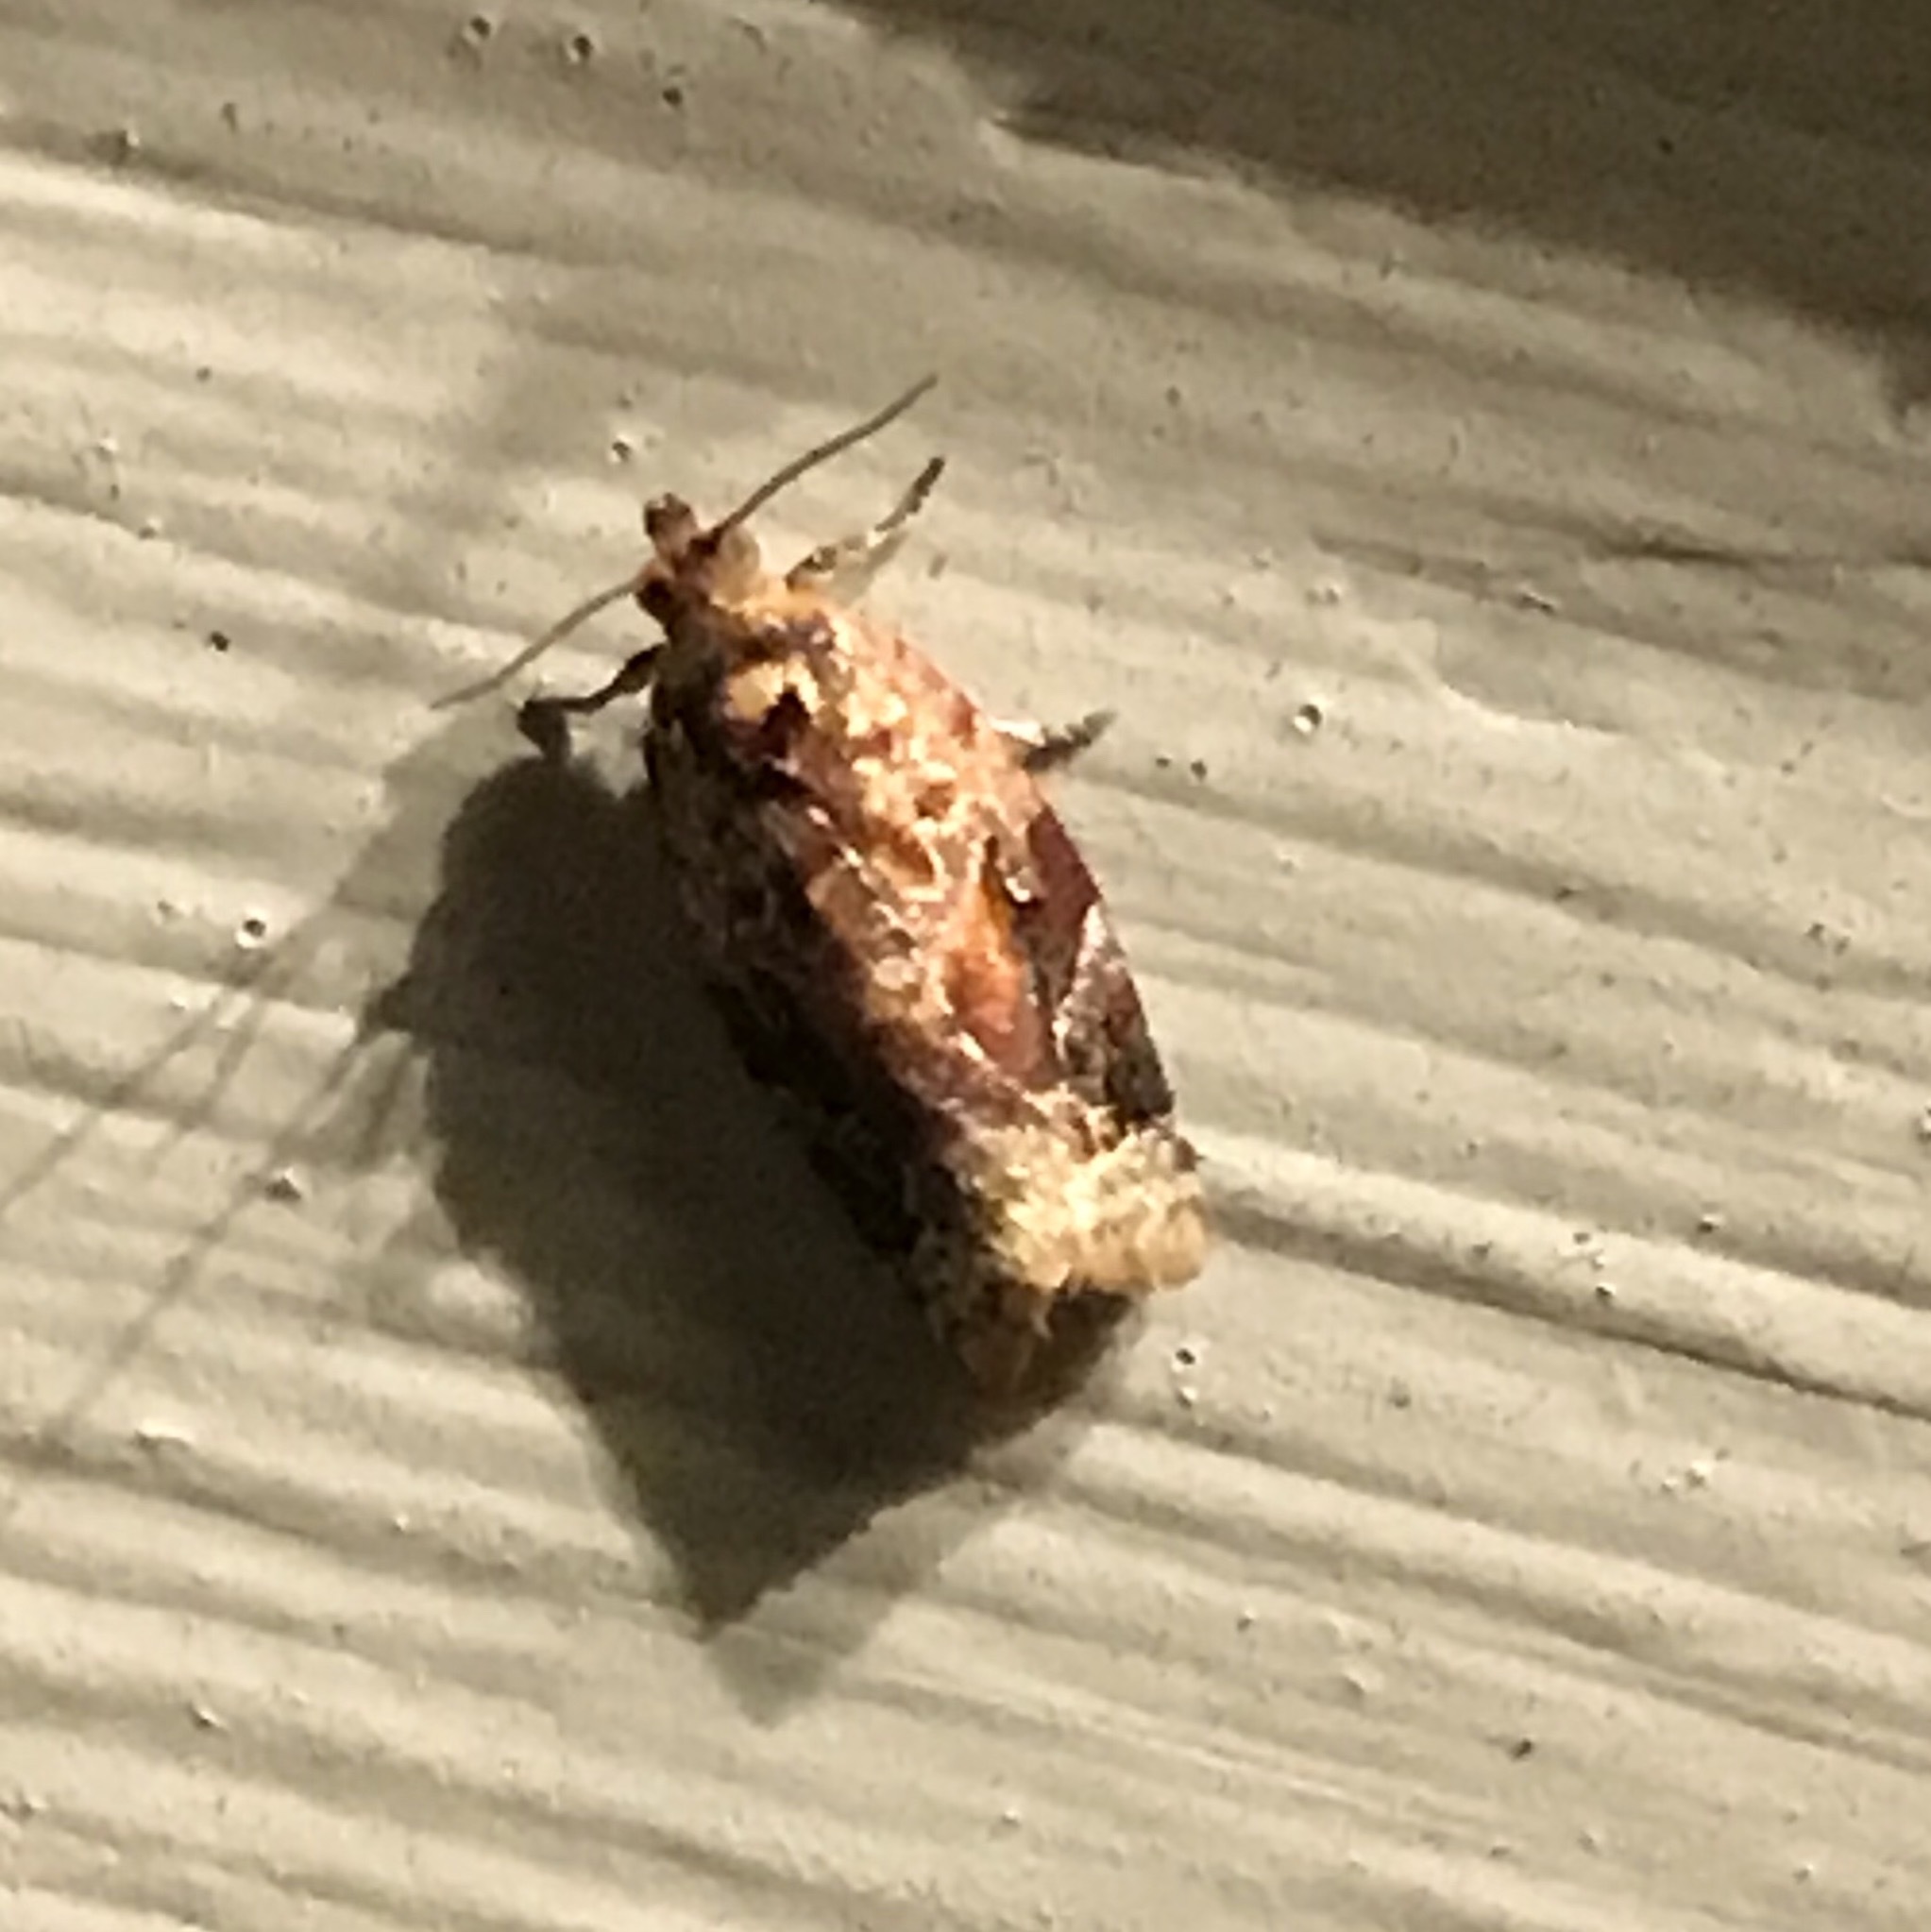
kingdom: Animalia
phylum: Arthropoda
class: Insecta
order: Lepidoptera
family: Tortricidae
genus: Argyrotaenia
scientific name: Argyrotaenia velutinana
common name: Red-banded leafroller moth
